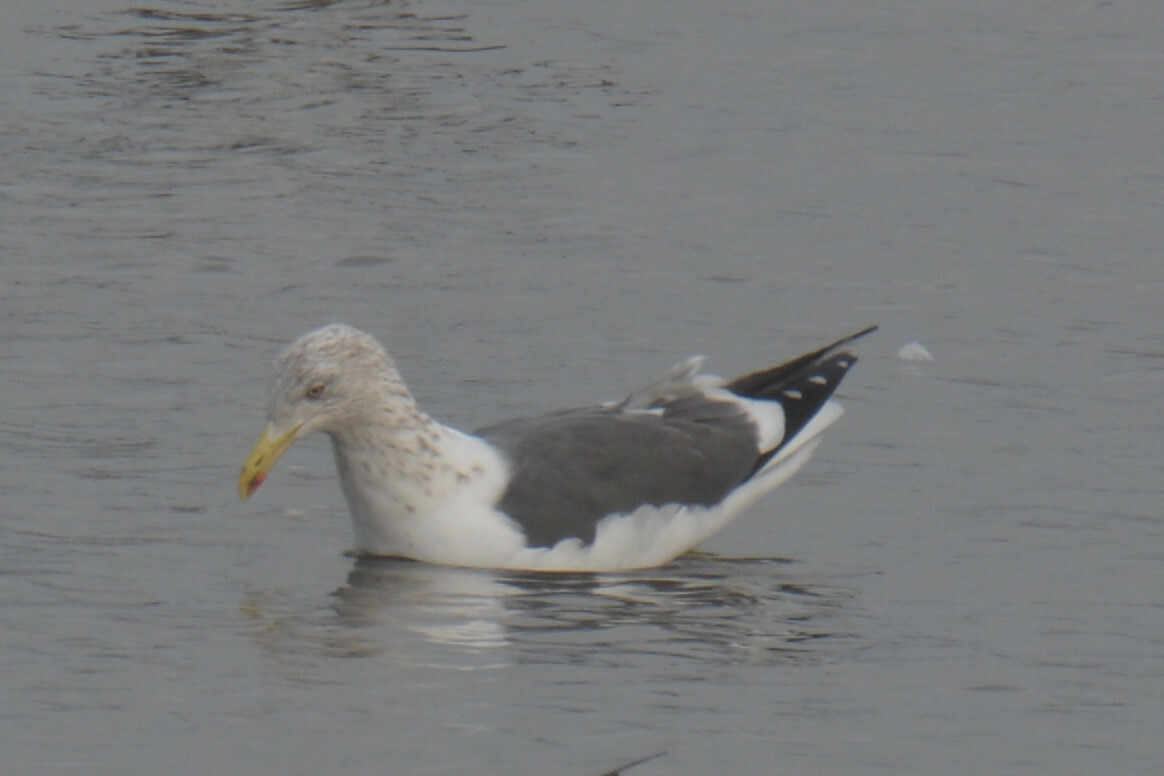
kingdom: Animalia
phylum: Chordata
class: Aves
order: Charadriiformes
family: Laridae
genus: Larus
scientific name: Larus fuscus
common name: Lesser black-backed gull
